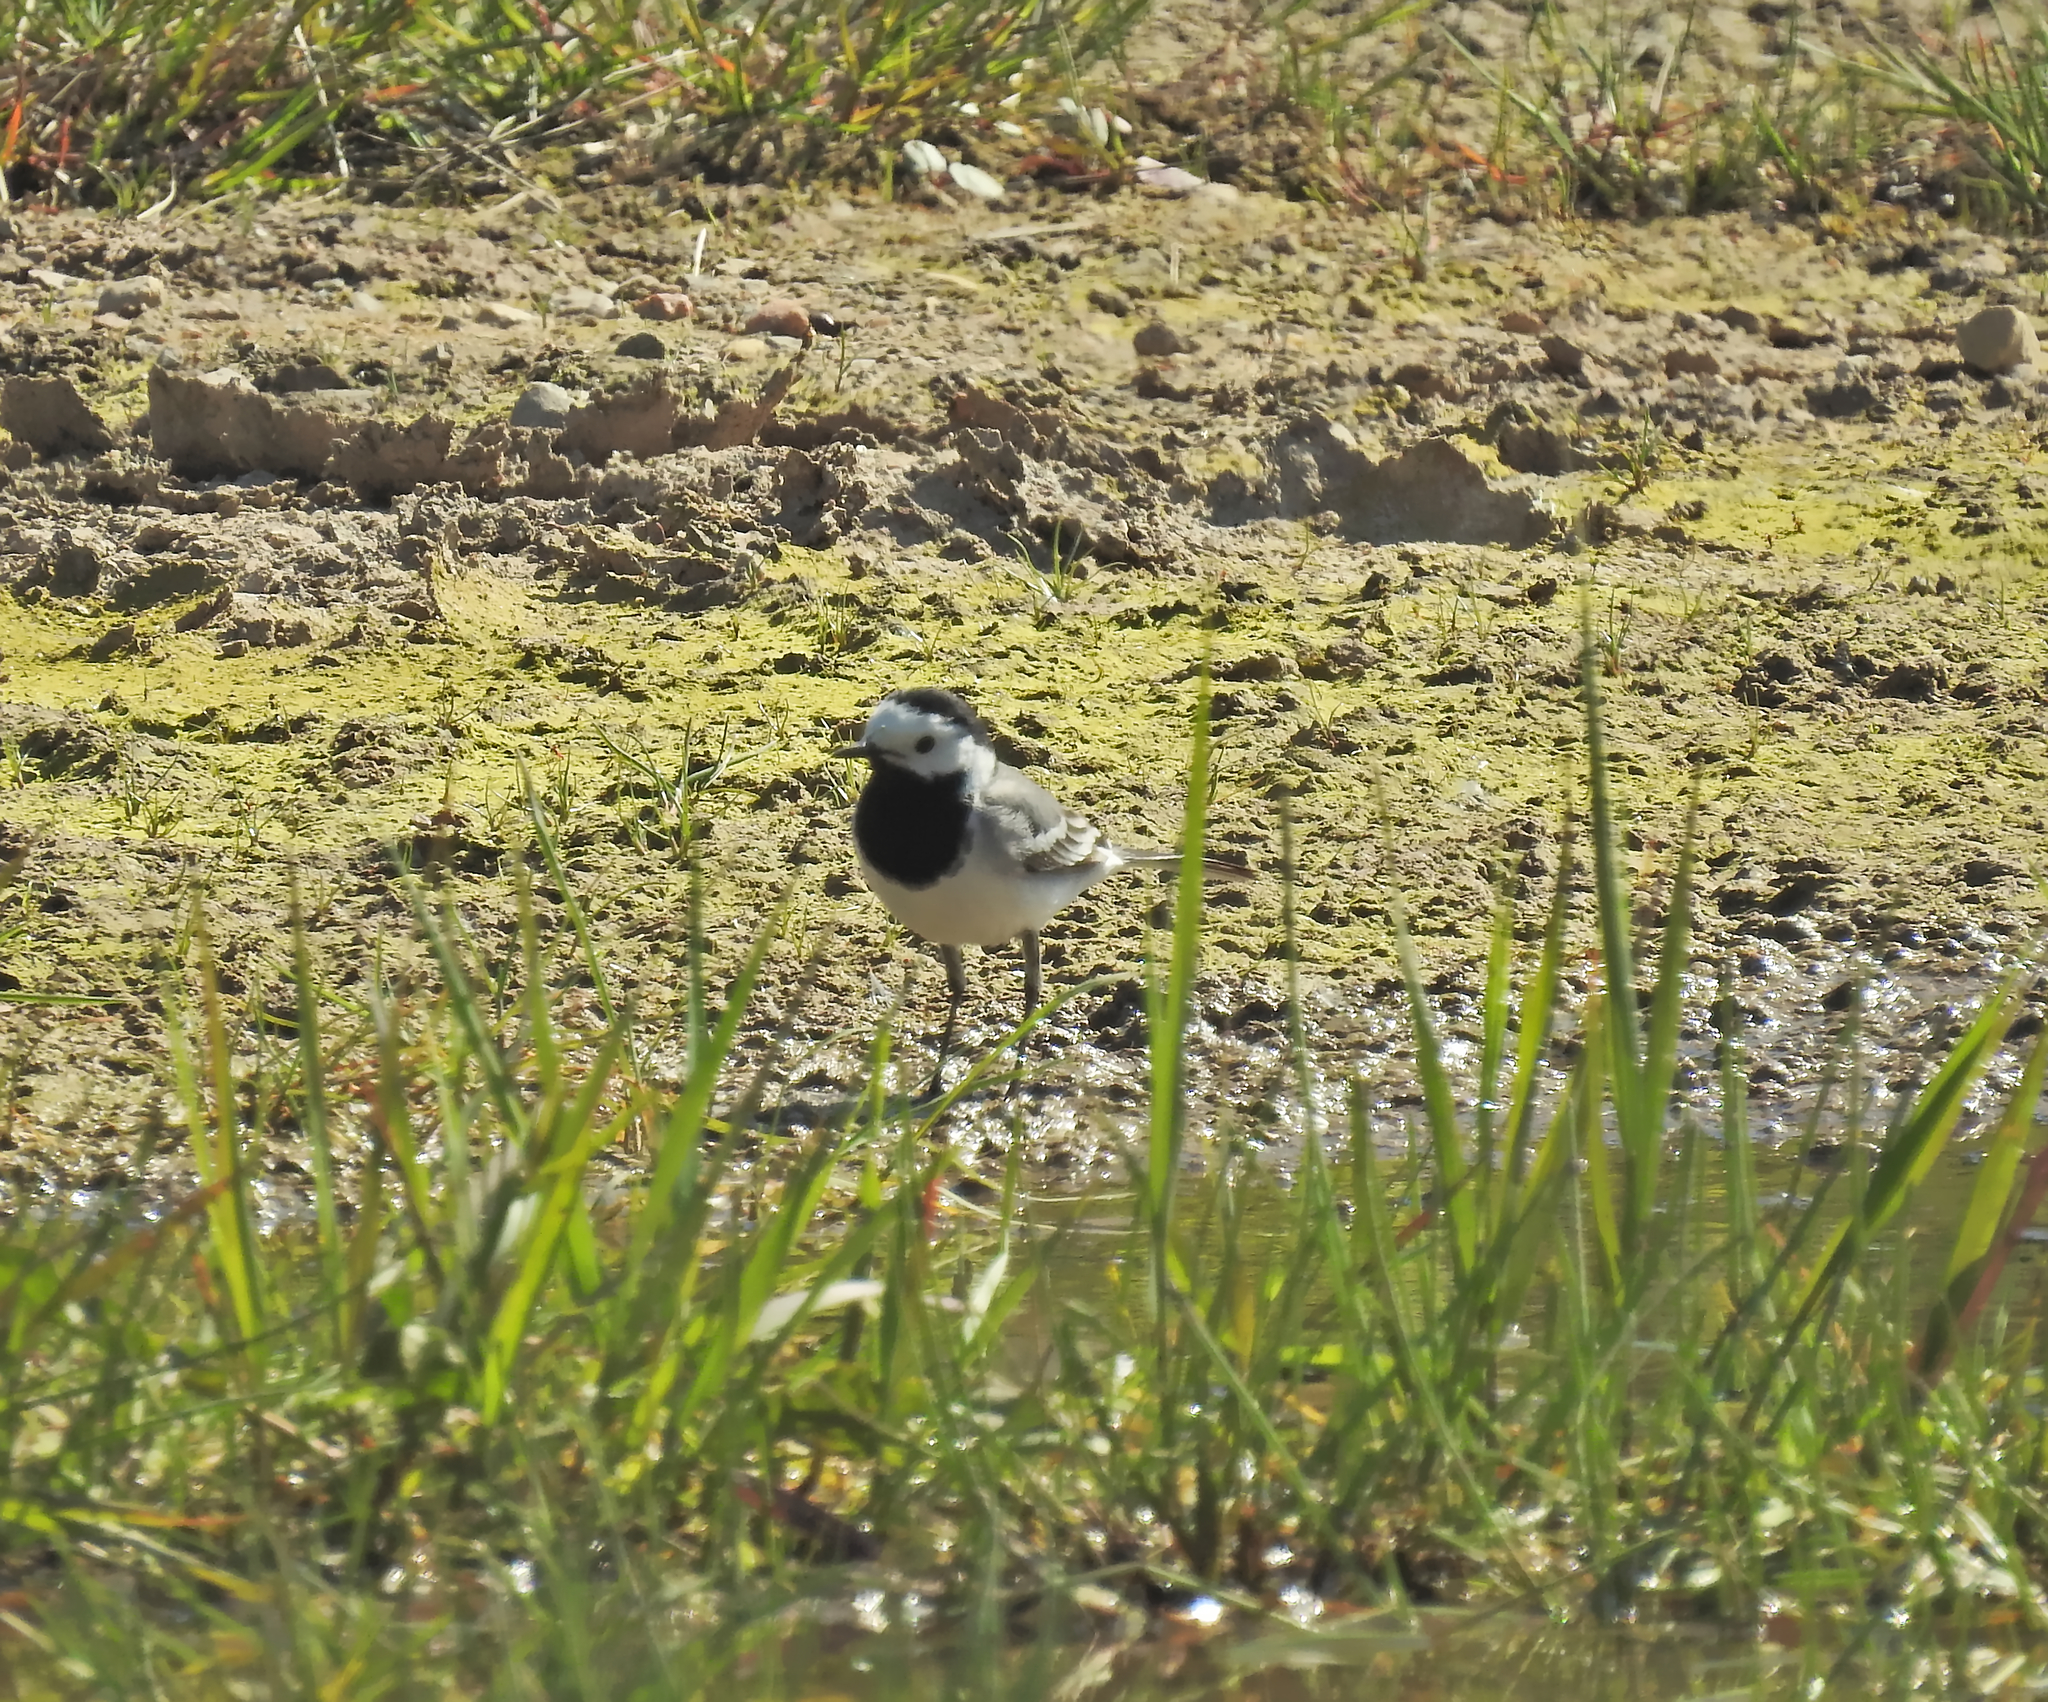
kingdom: Animalia
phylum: Chordata
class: Aves
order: Passeriformes
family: Motacillidae
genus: Motacilla
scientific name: Motacilla alba
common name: White wagtail
